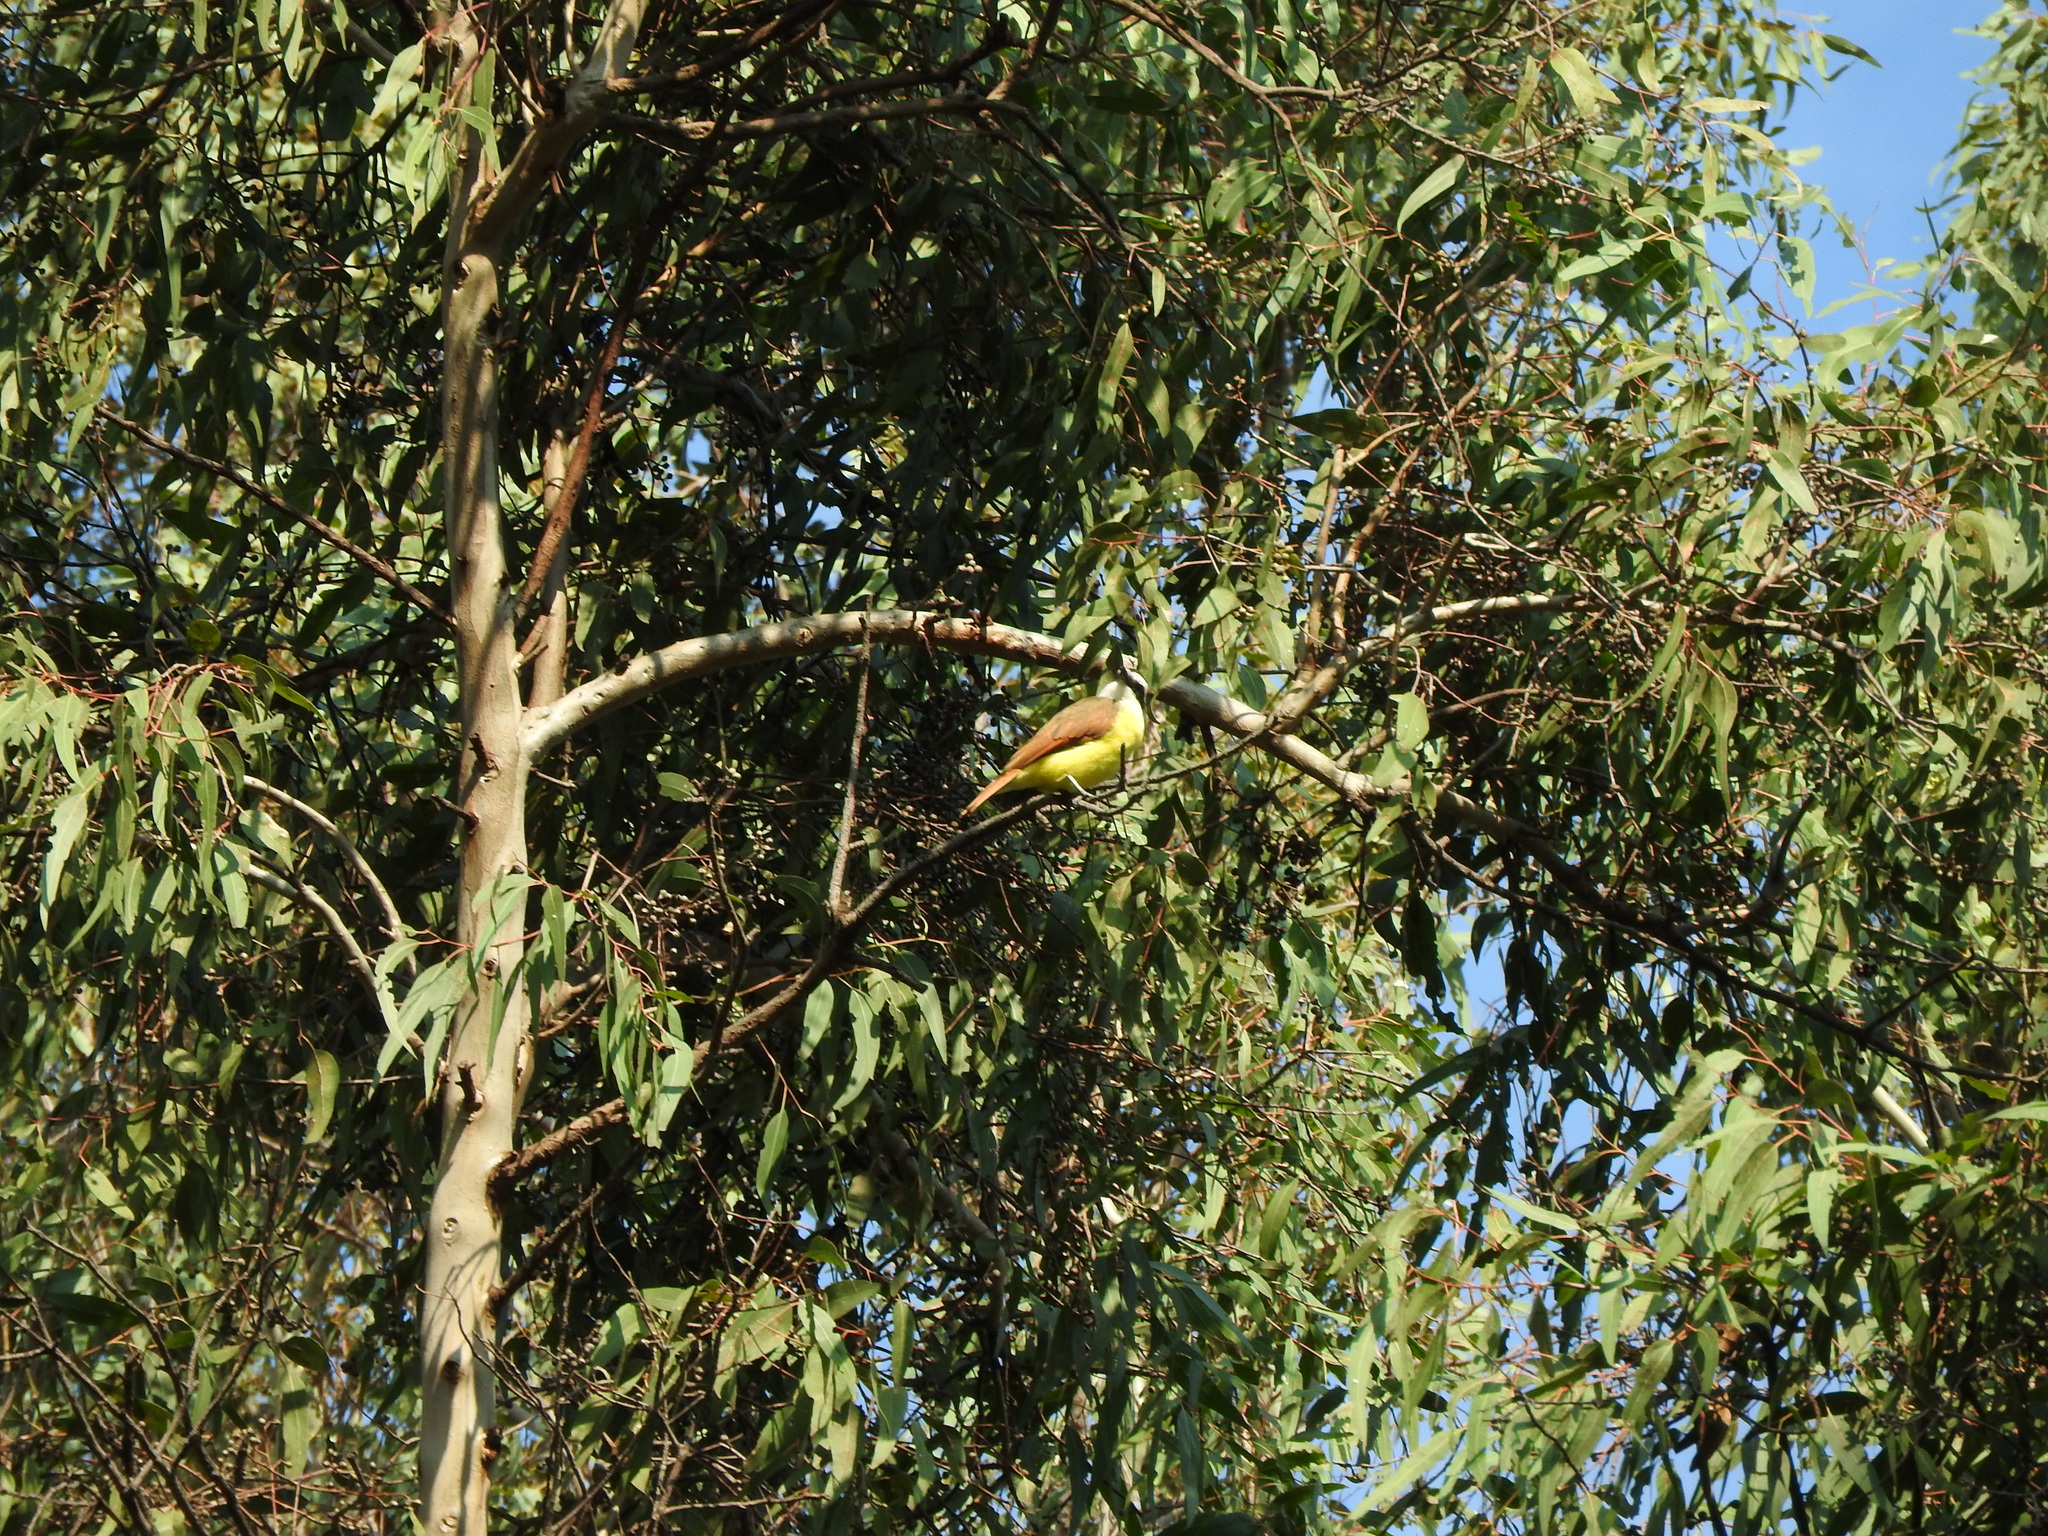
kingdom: Animalia
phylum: Chordata
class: Aves
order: Passeriformes
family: Tyrannidae
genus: Pitangus
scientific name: Pitangus sulphuratus
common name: Great kiskadee
